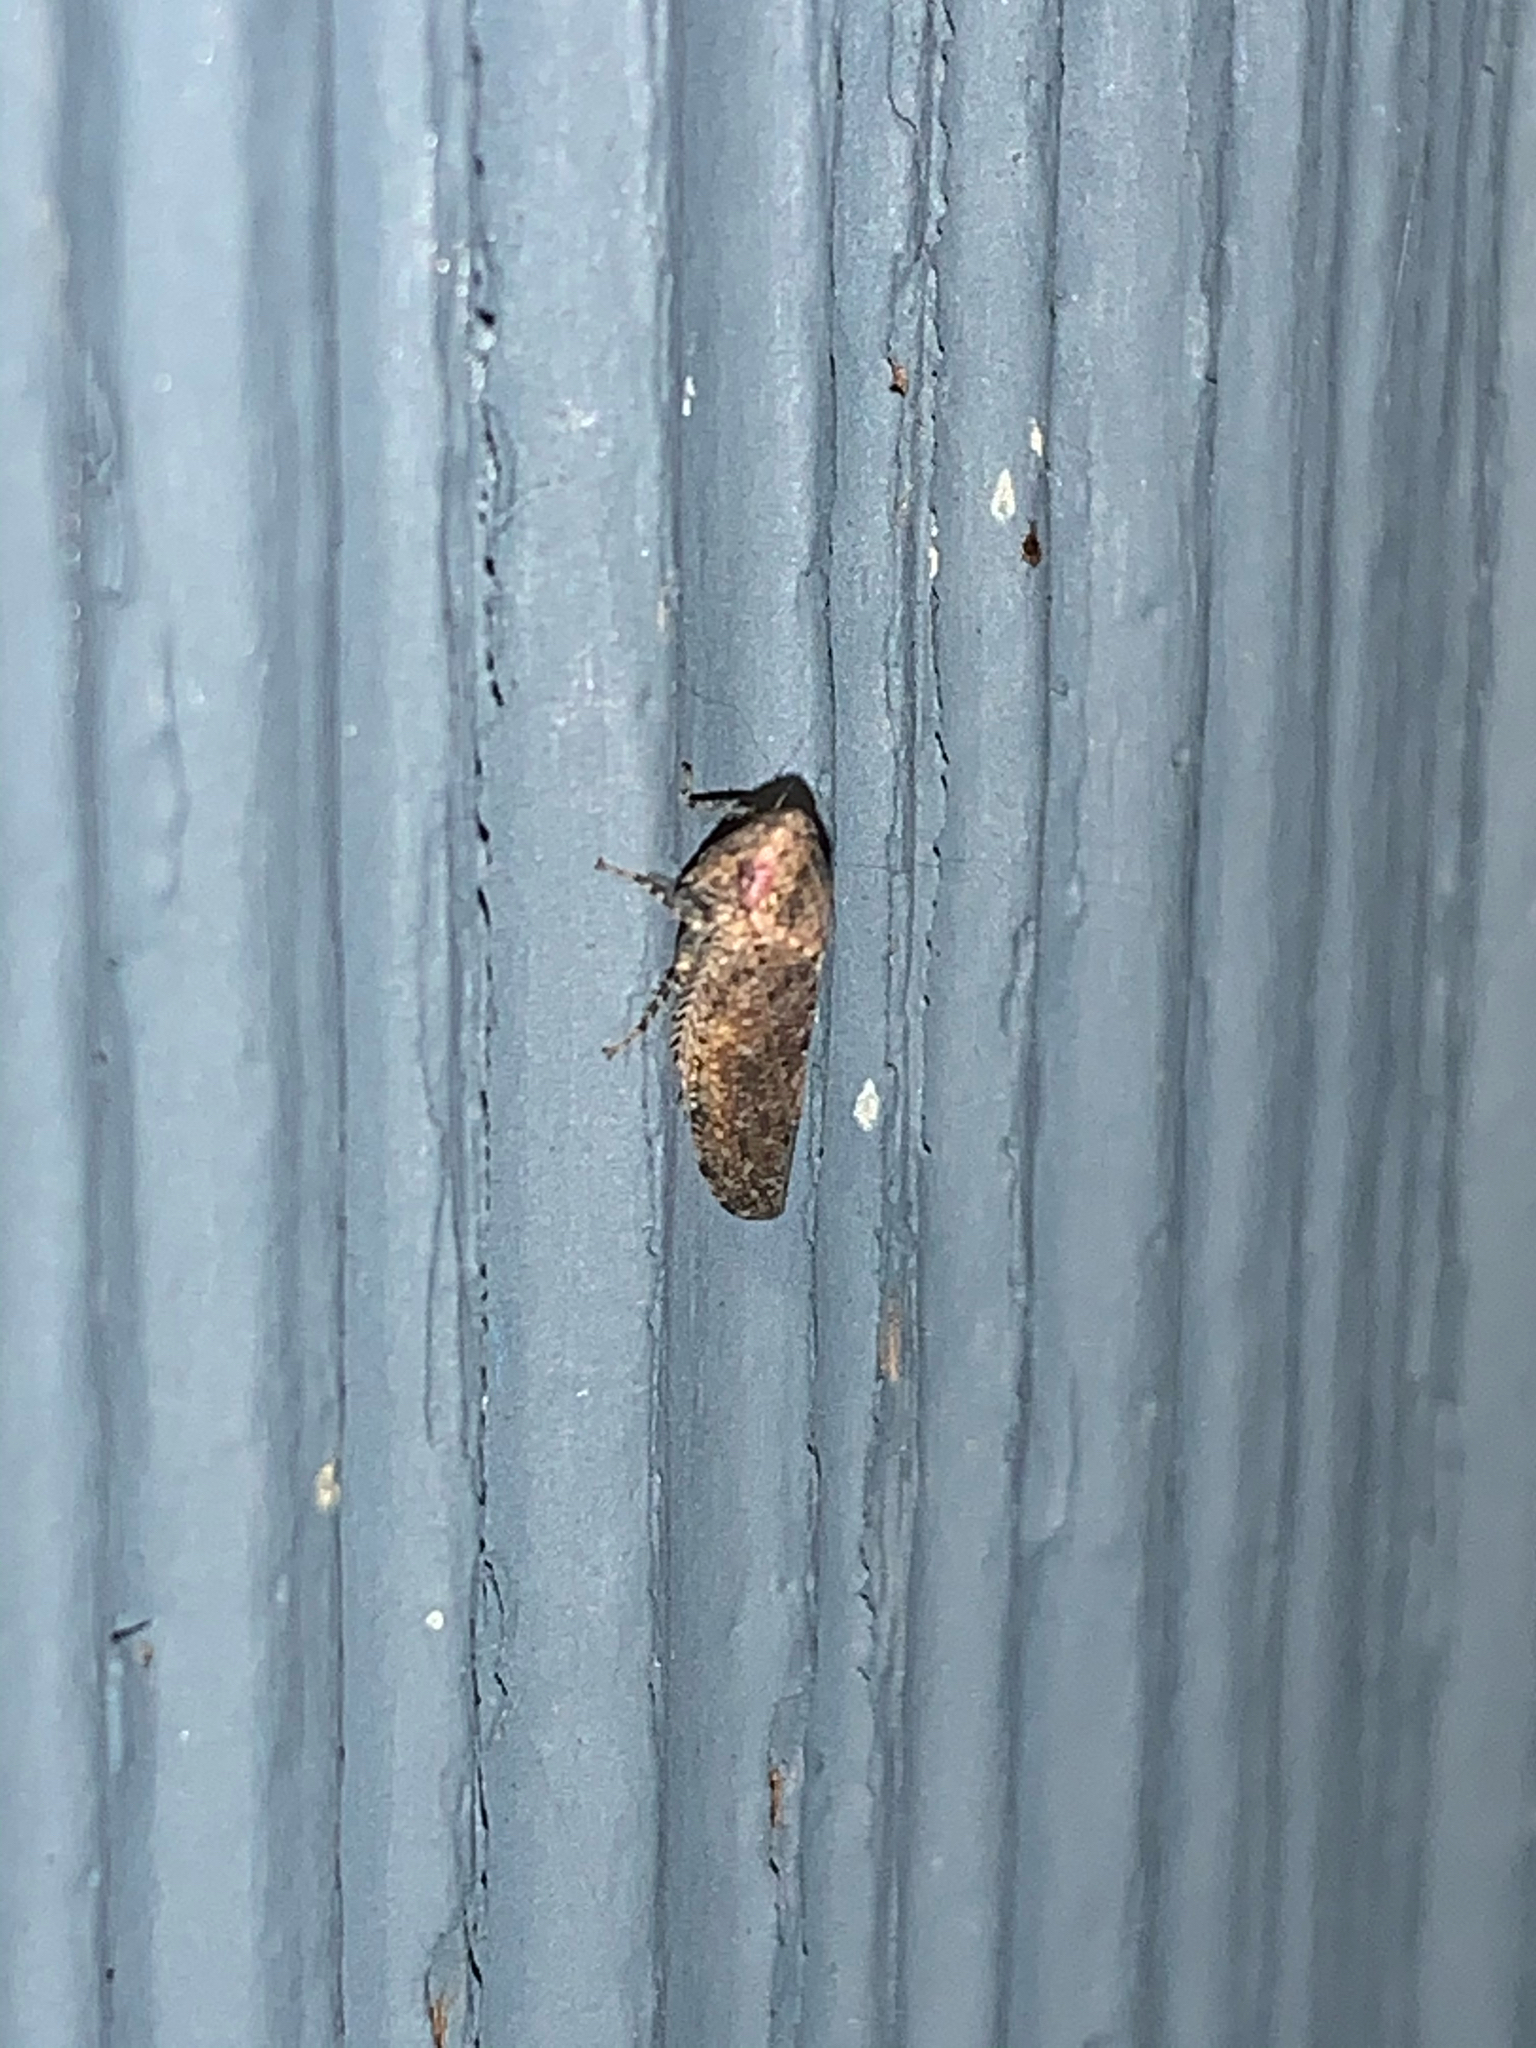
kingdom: Animalia
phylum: Arthropoda
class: Insecta
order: Hemiptera
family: Cicadellidae
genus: Paraphlepsius
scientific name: Paraphlepsius
